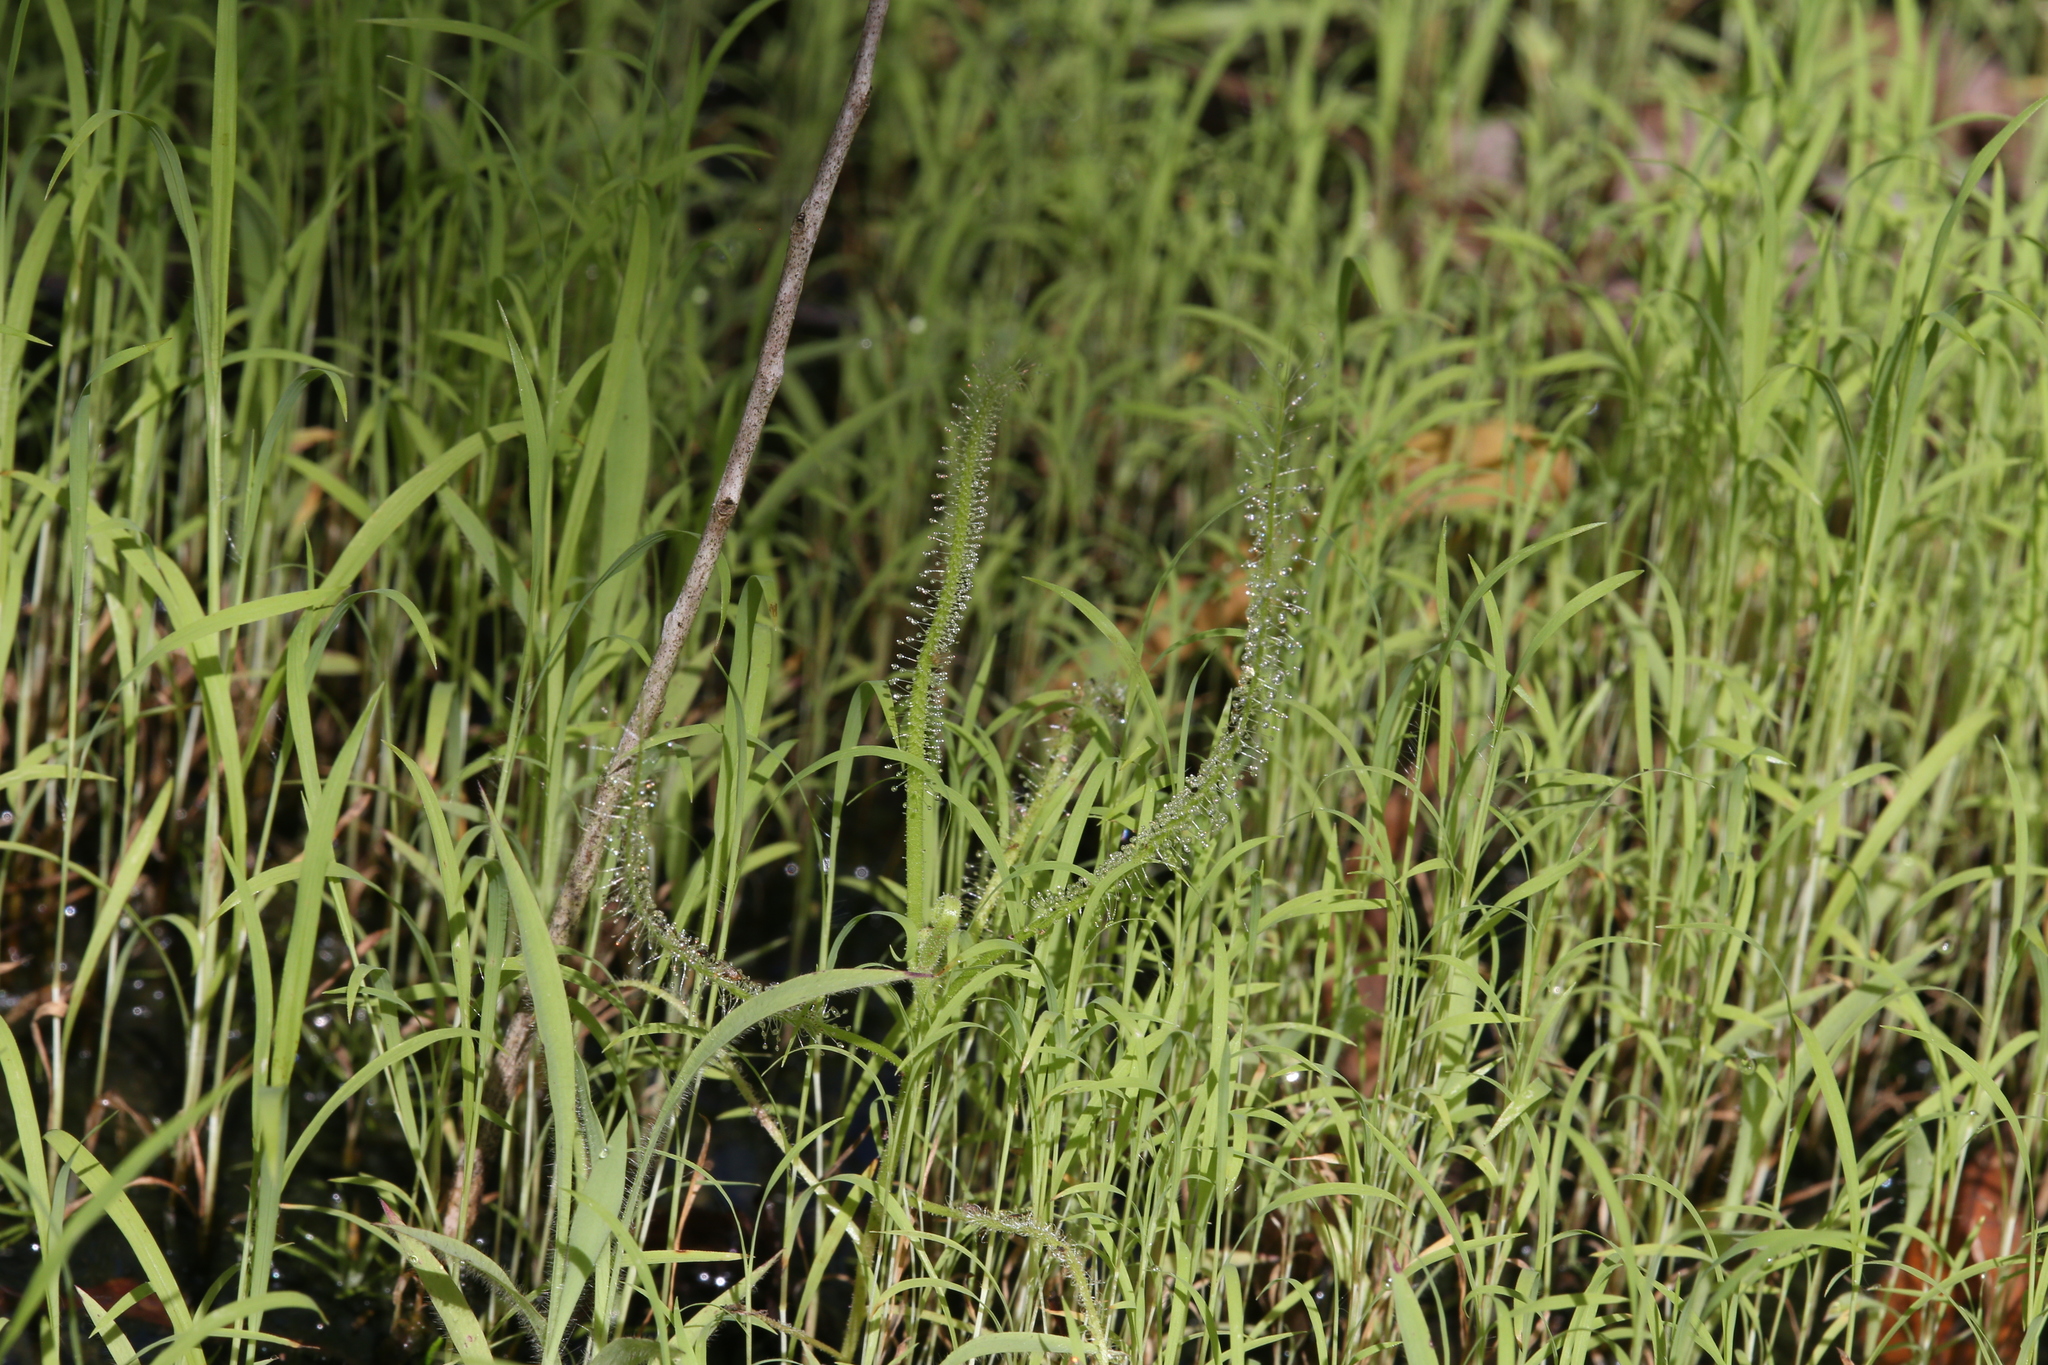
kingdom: Plantae
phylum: Tracheophyta
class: Magnoliopsida
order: Caryophyllales
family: Droseraceae
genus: Drosera
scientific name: Drosera indica
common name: Indian sundew
